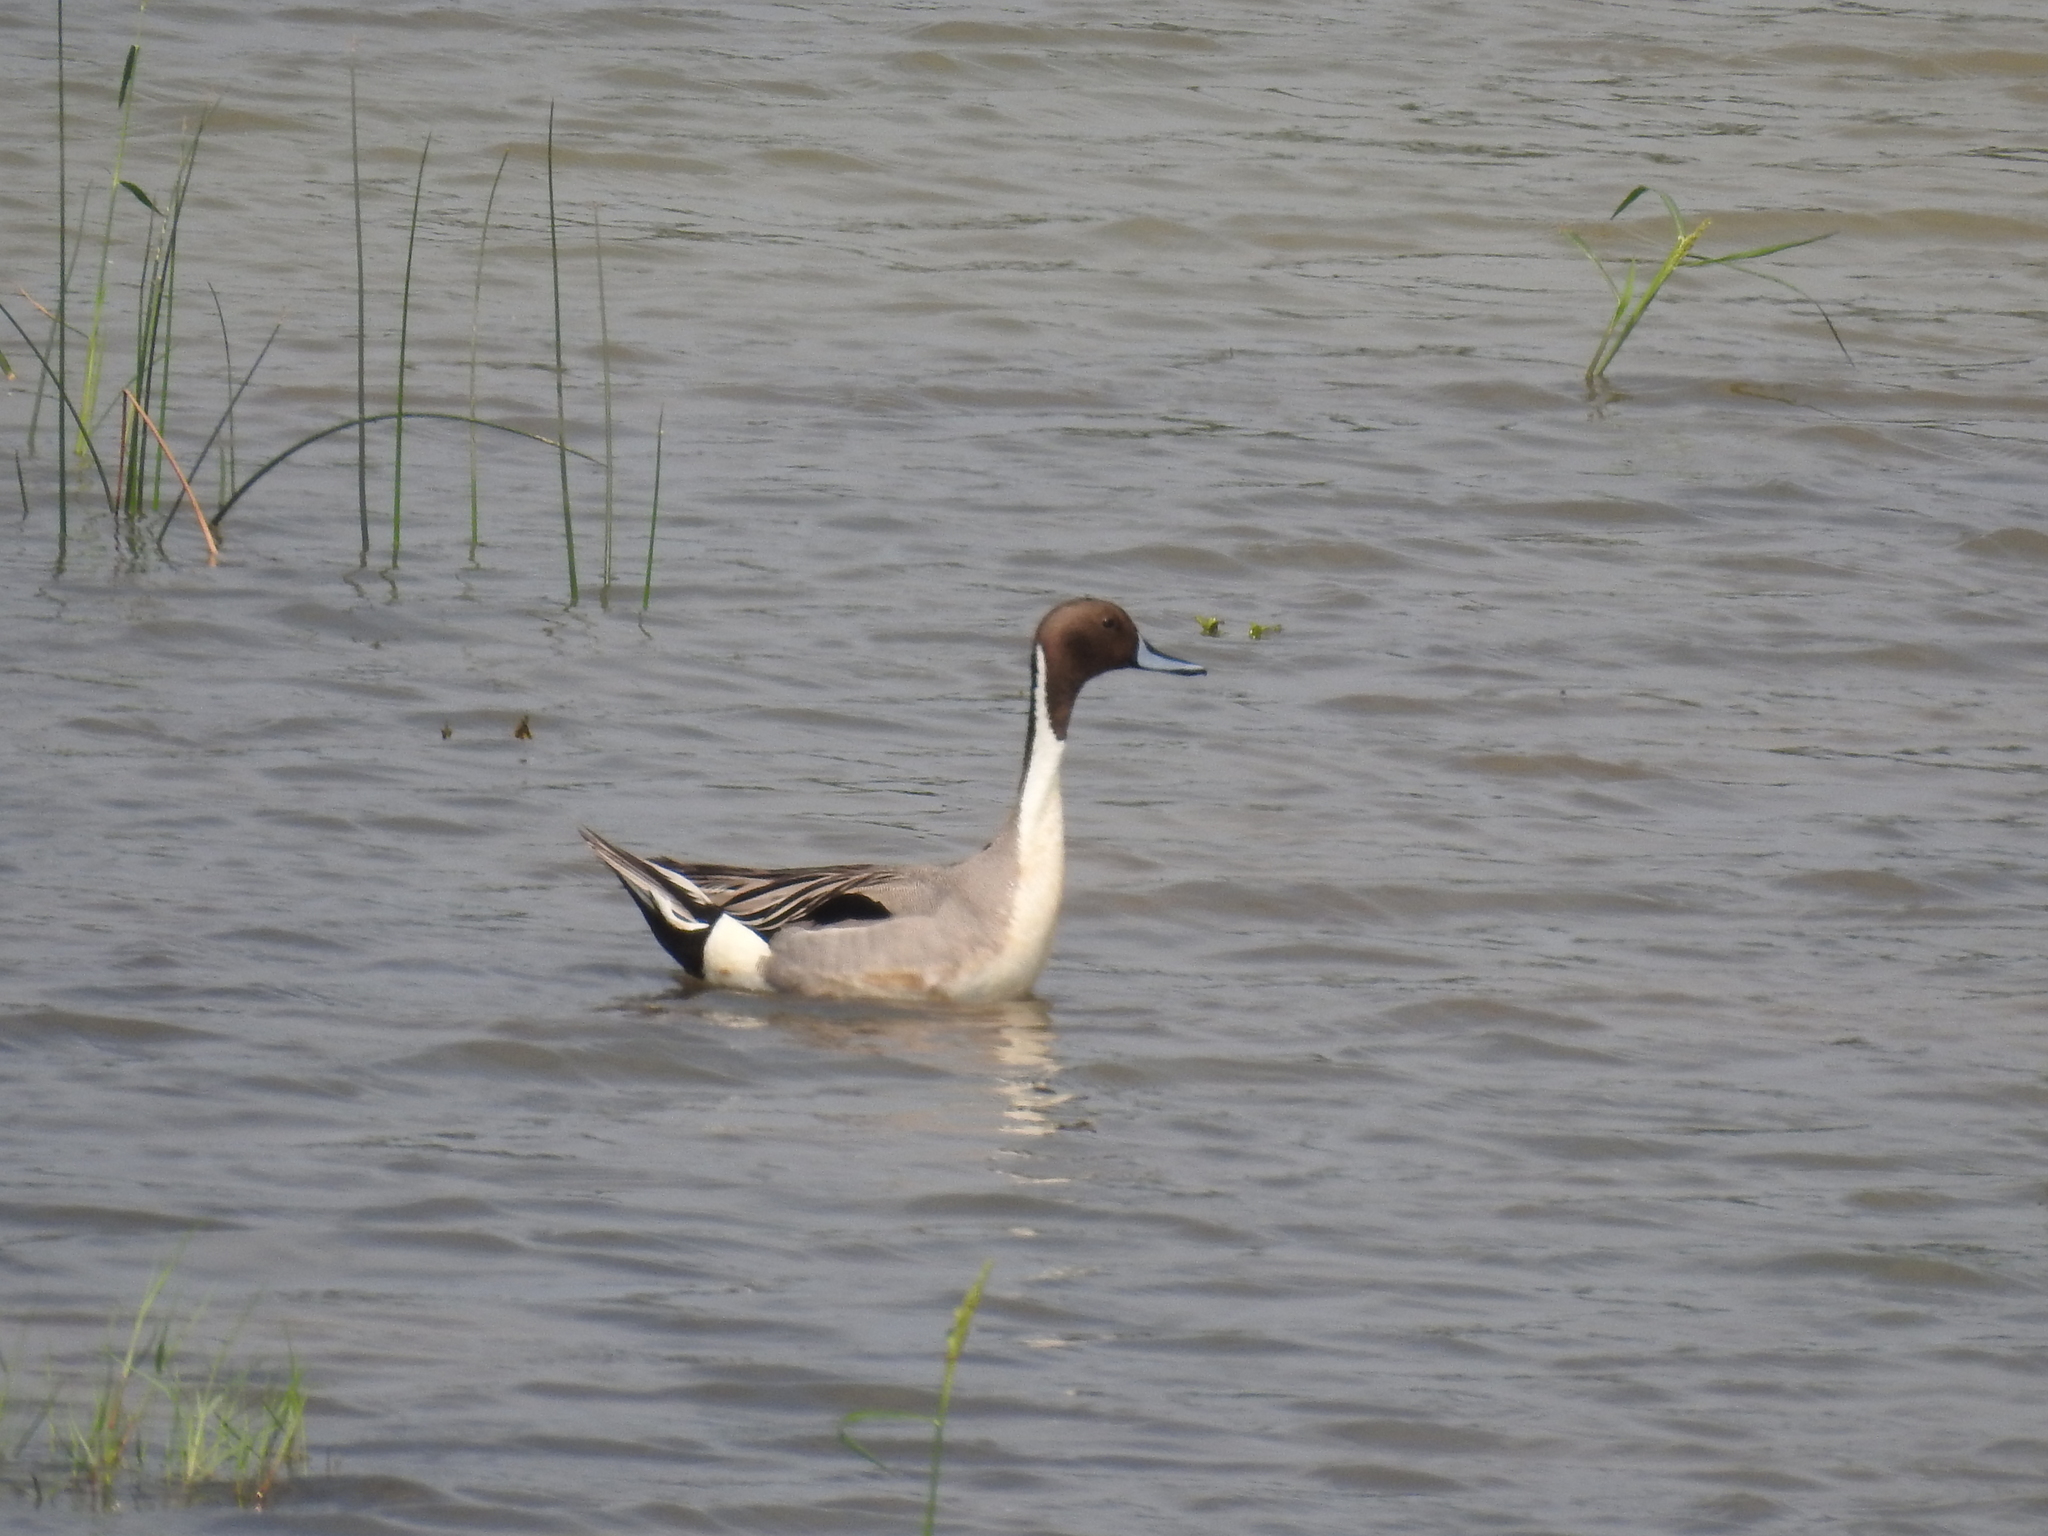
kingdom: Animalia
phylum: Chordata
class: Aves
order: Anseriformes
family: Anatidae
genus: Anas
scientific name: Anas acuta
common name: Northern pintail
